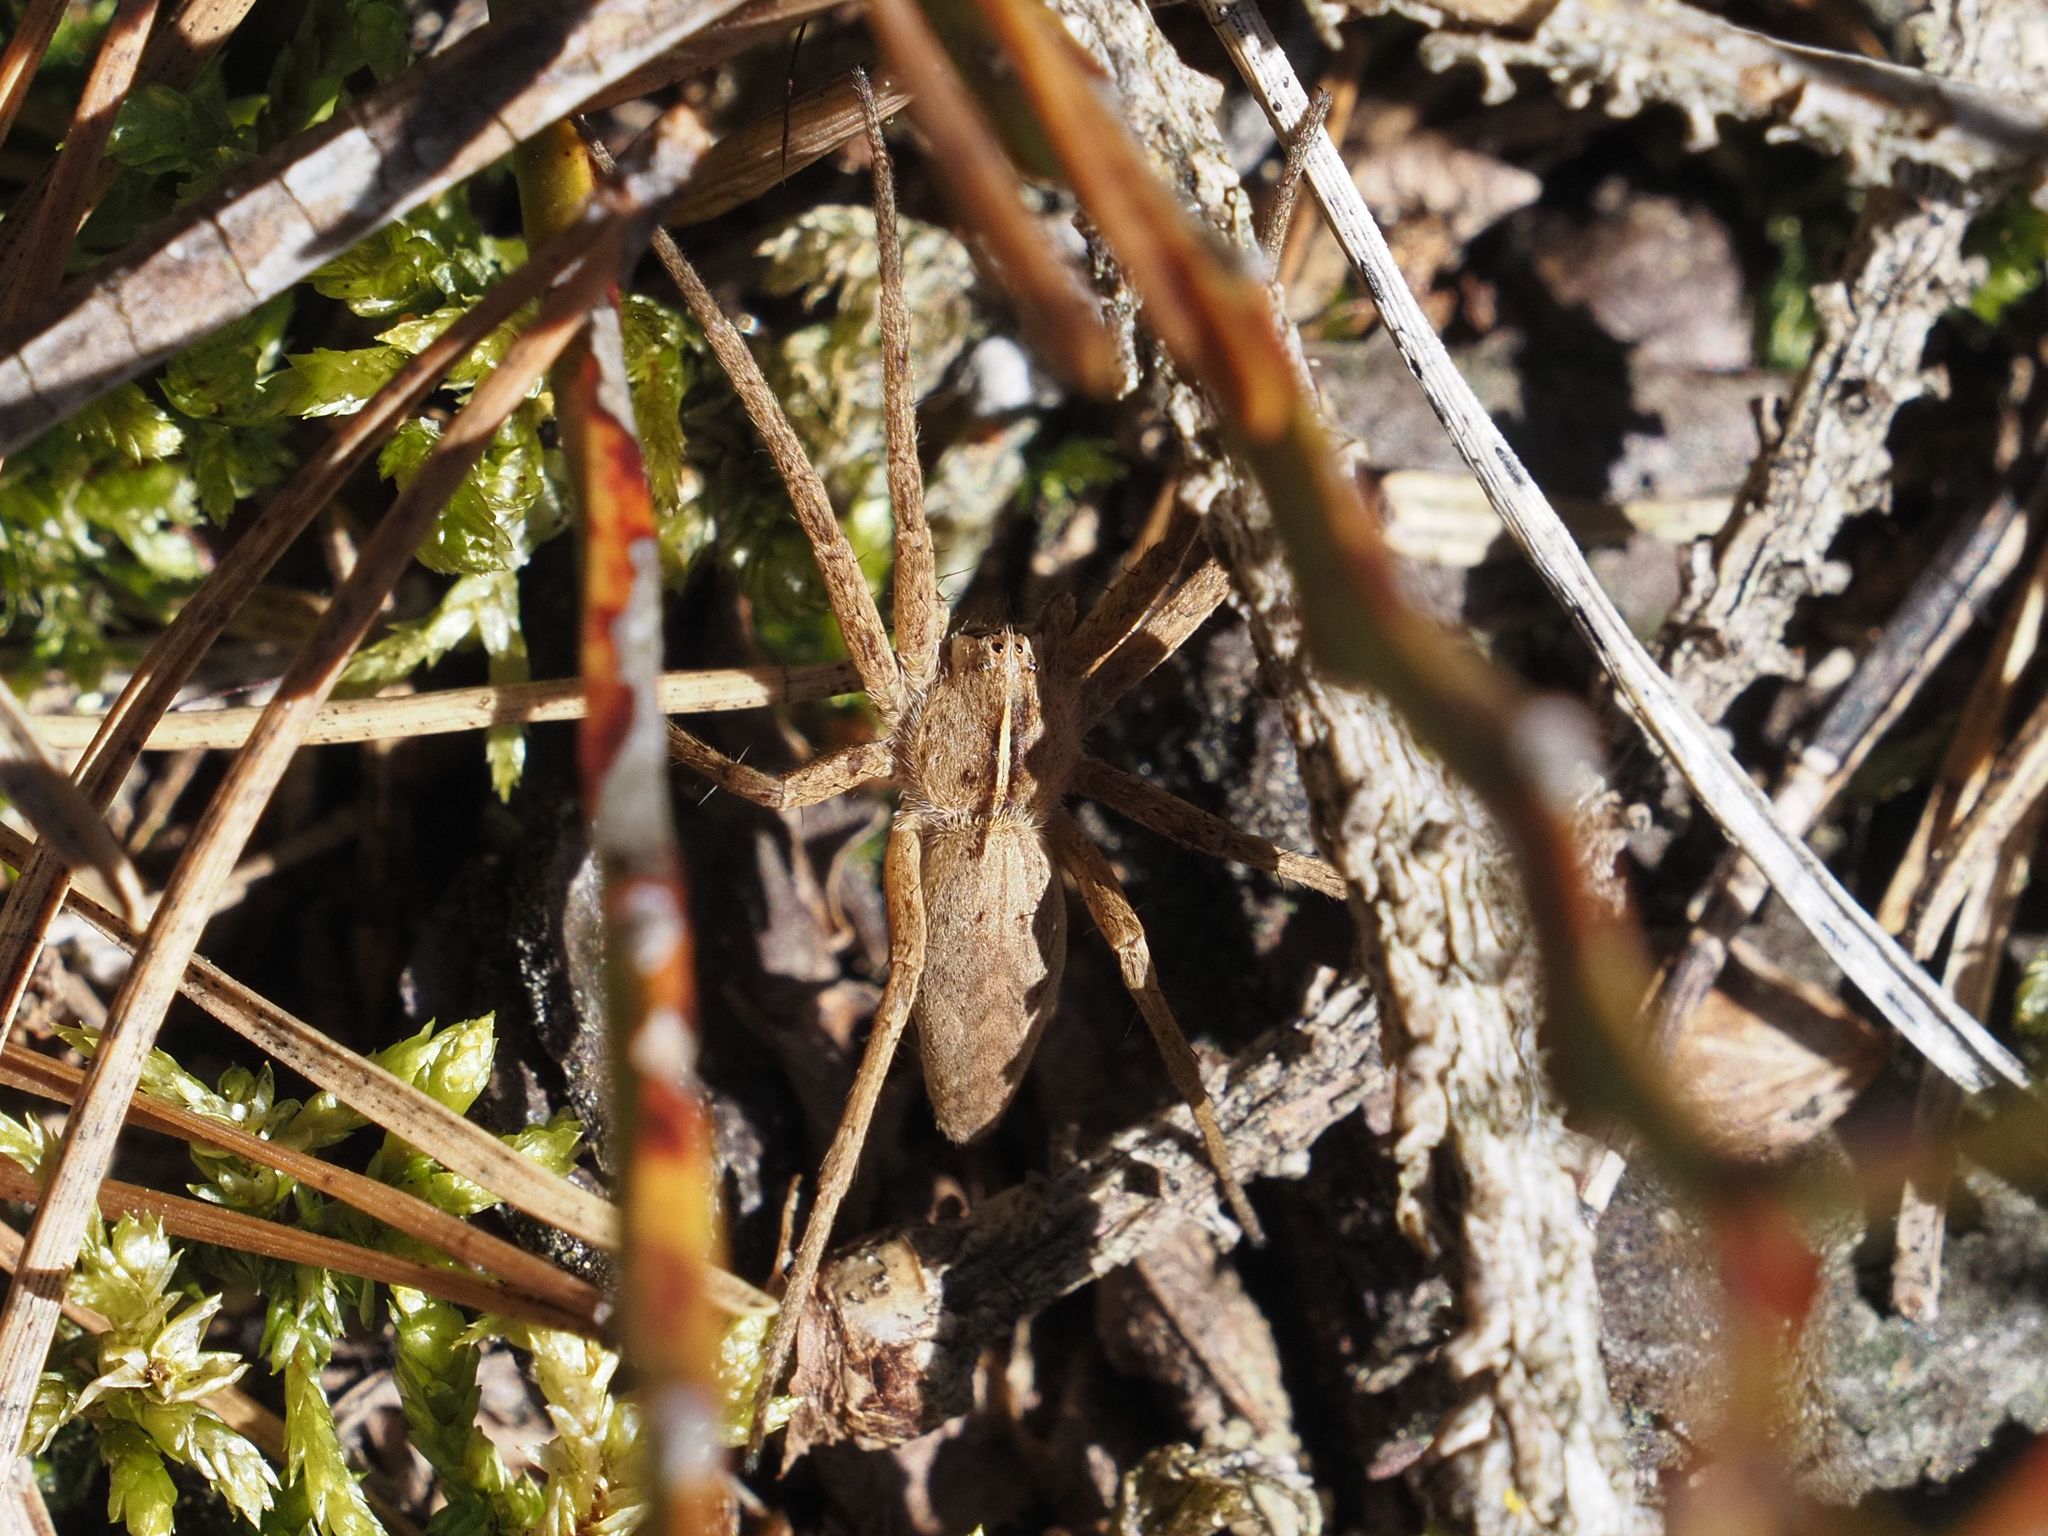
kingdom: Animalia
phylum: Arthropoda
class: Arachnida
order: Araneae
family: Pisauridae
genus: Pisaura
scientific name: Pisaura mirabilis
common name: Tent spider
